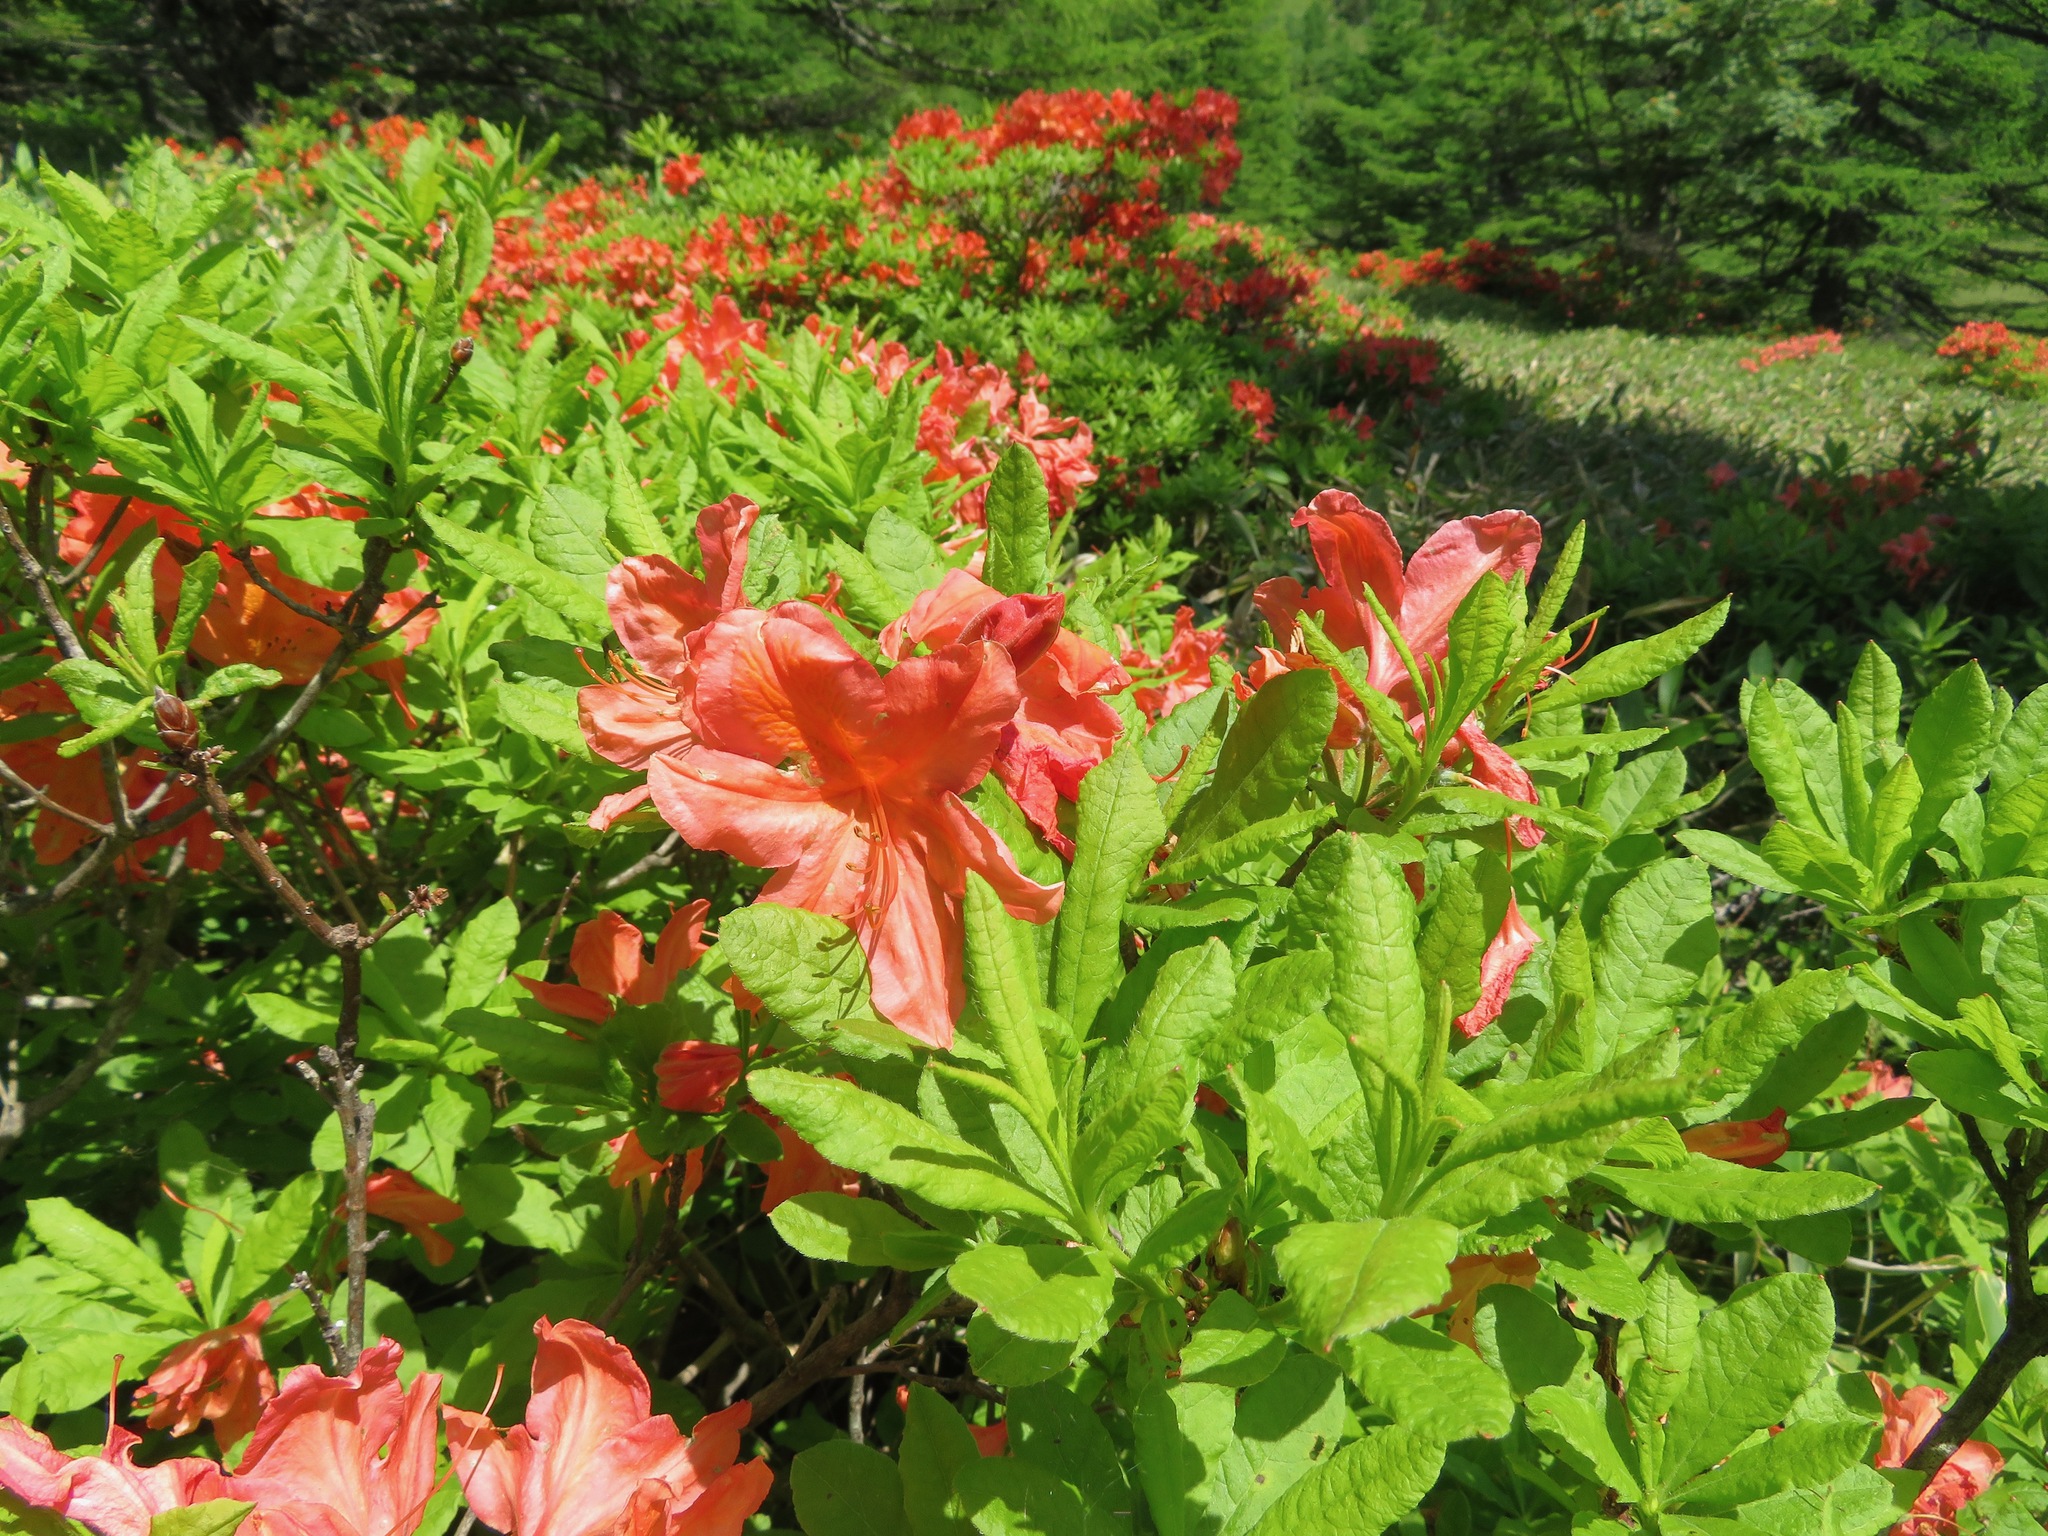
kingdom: Plantae
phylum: Tracheophyta
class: Magnoliopsida
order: Ericales
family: Ericaceae
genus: Rhododendron
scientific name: Rhododendron japonicum
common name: Japanese azalea
